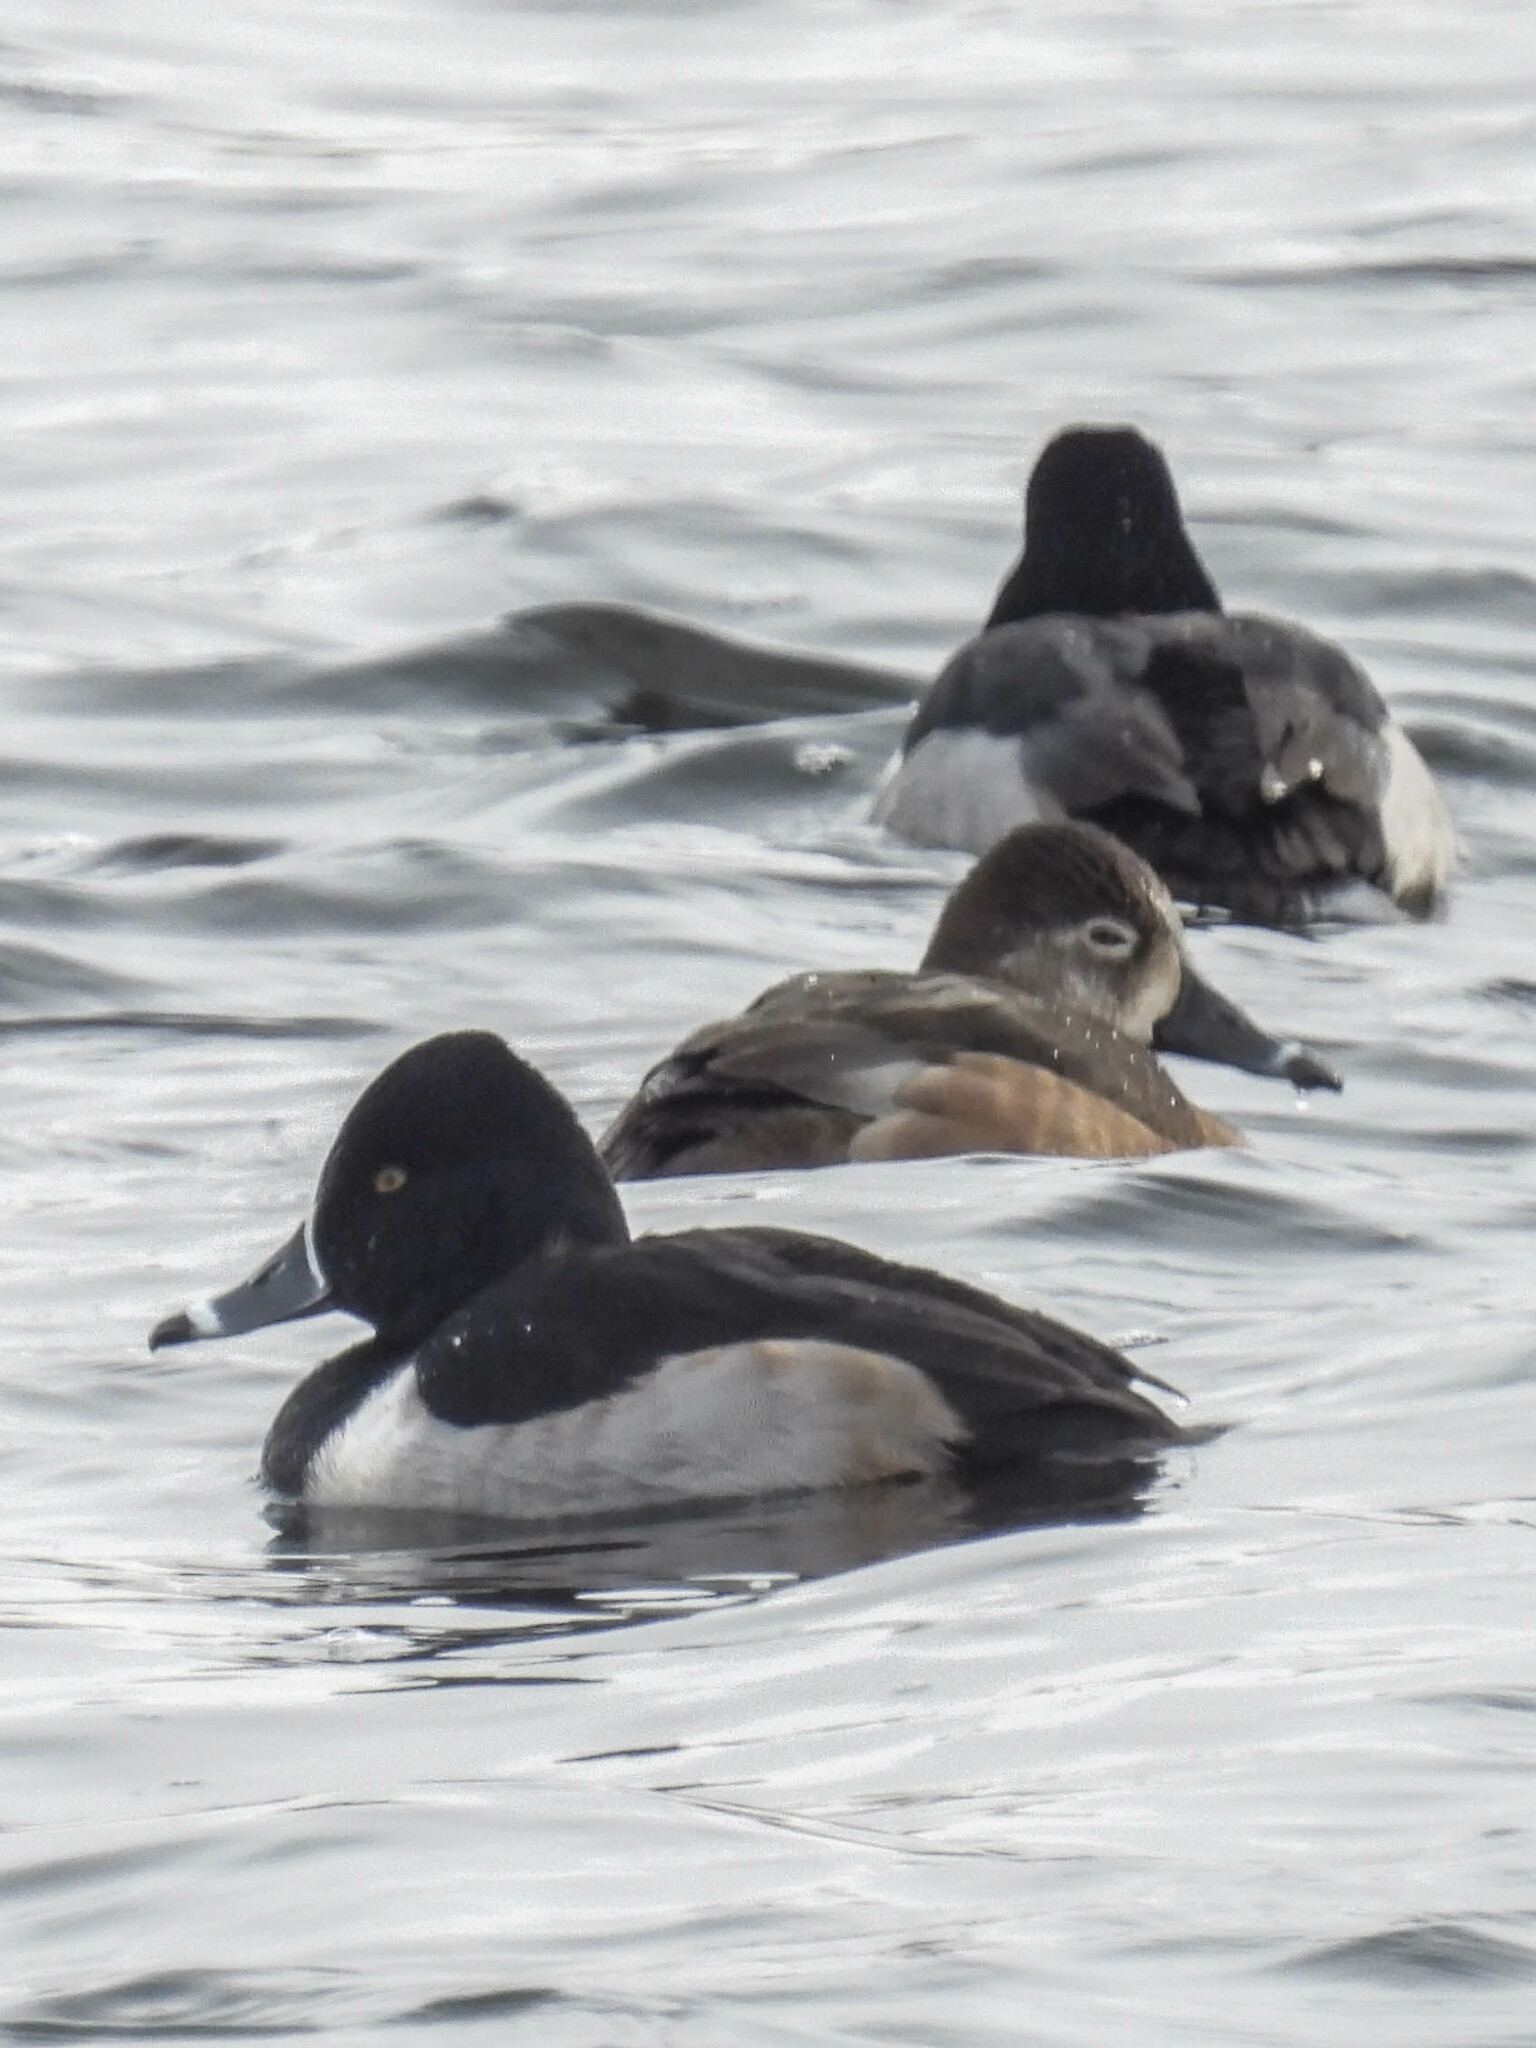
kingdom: Animalia
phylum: Chordata
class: Aves
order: Anseriformes
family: Anatidae
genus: Aythya
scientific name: Aythya collaris
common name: Ring-necked duck
